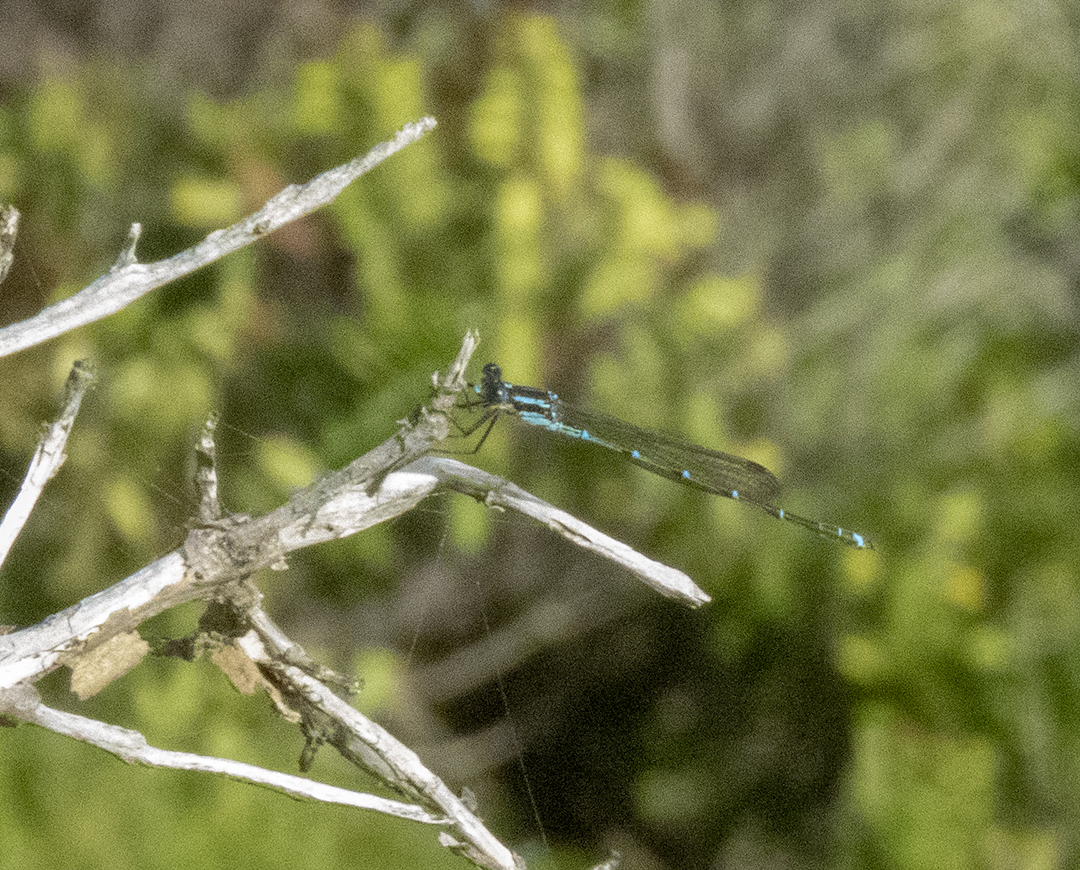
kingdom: Animalia
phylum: Arthropoda
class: Insecta
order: Odonata
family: Lestidae
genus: Austrolestes
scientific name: Austrolestes colensonis
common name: Blue damselfly
